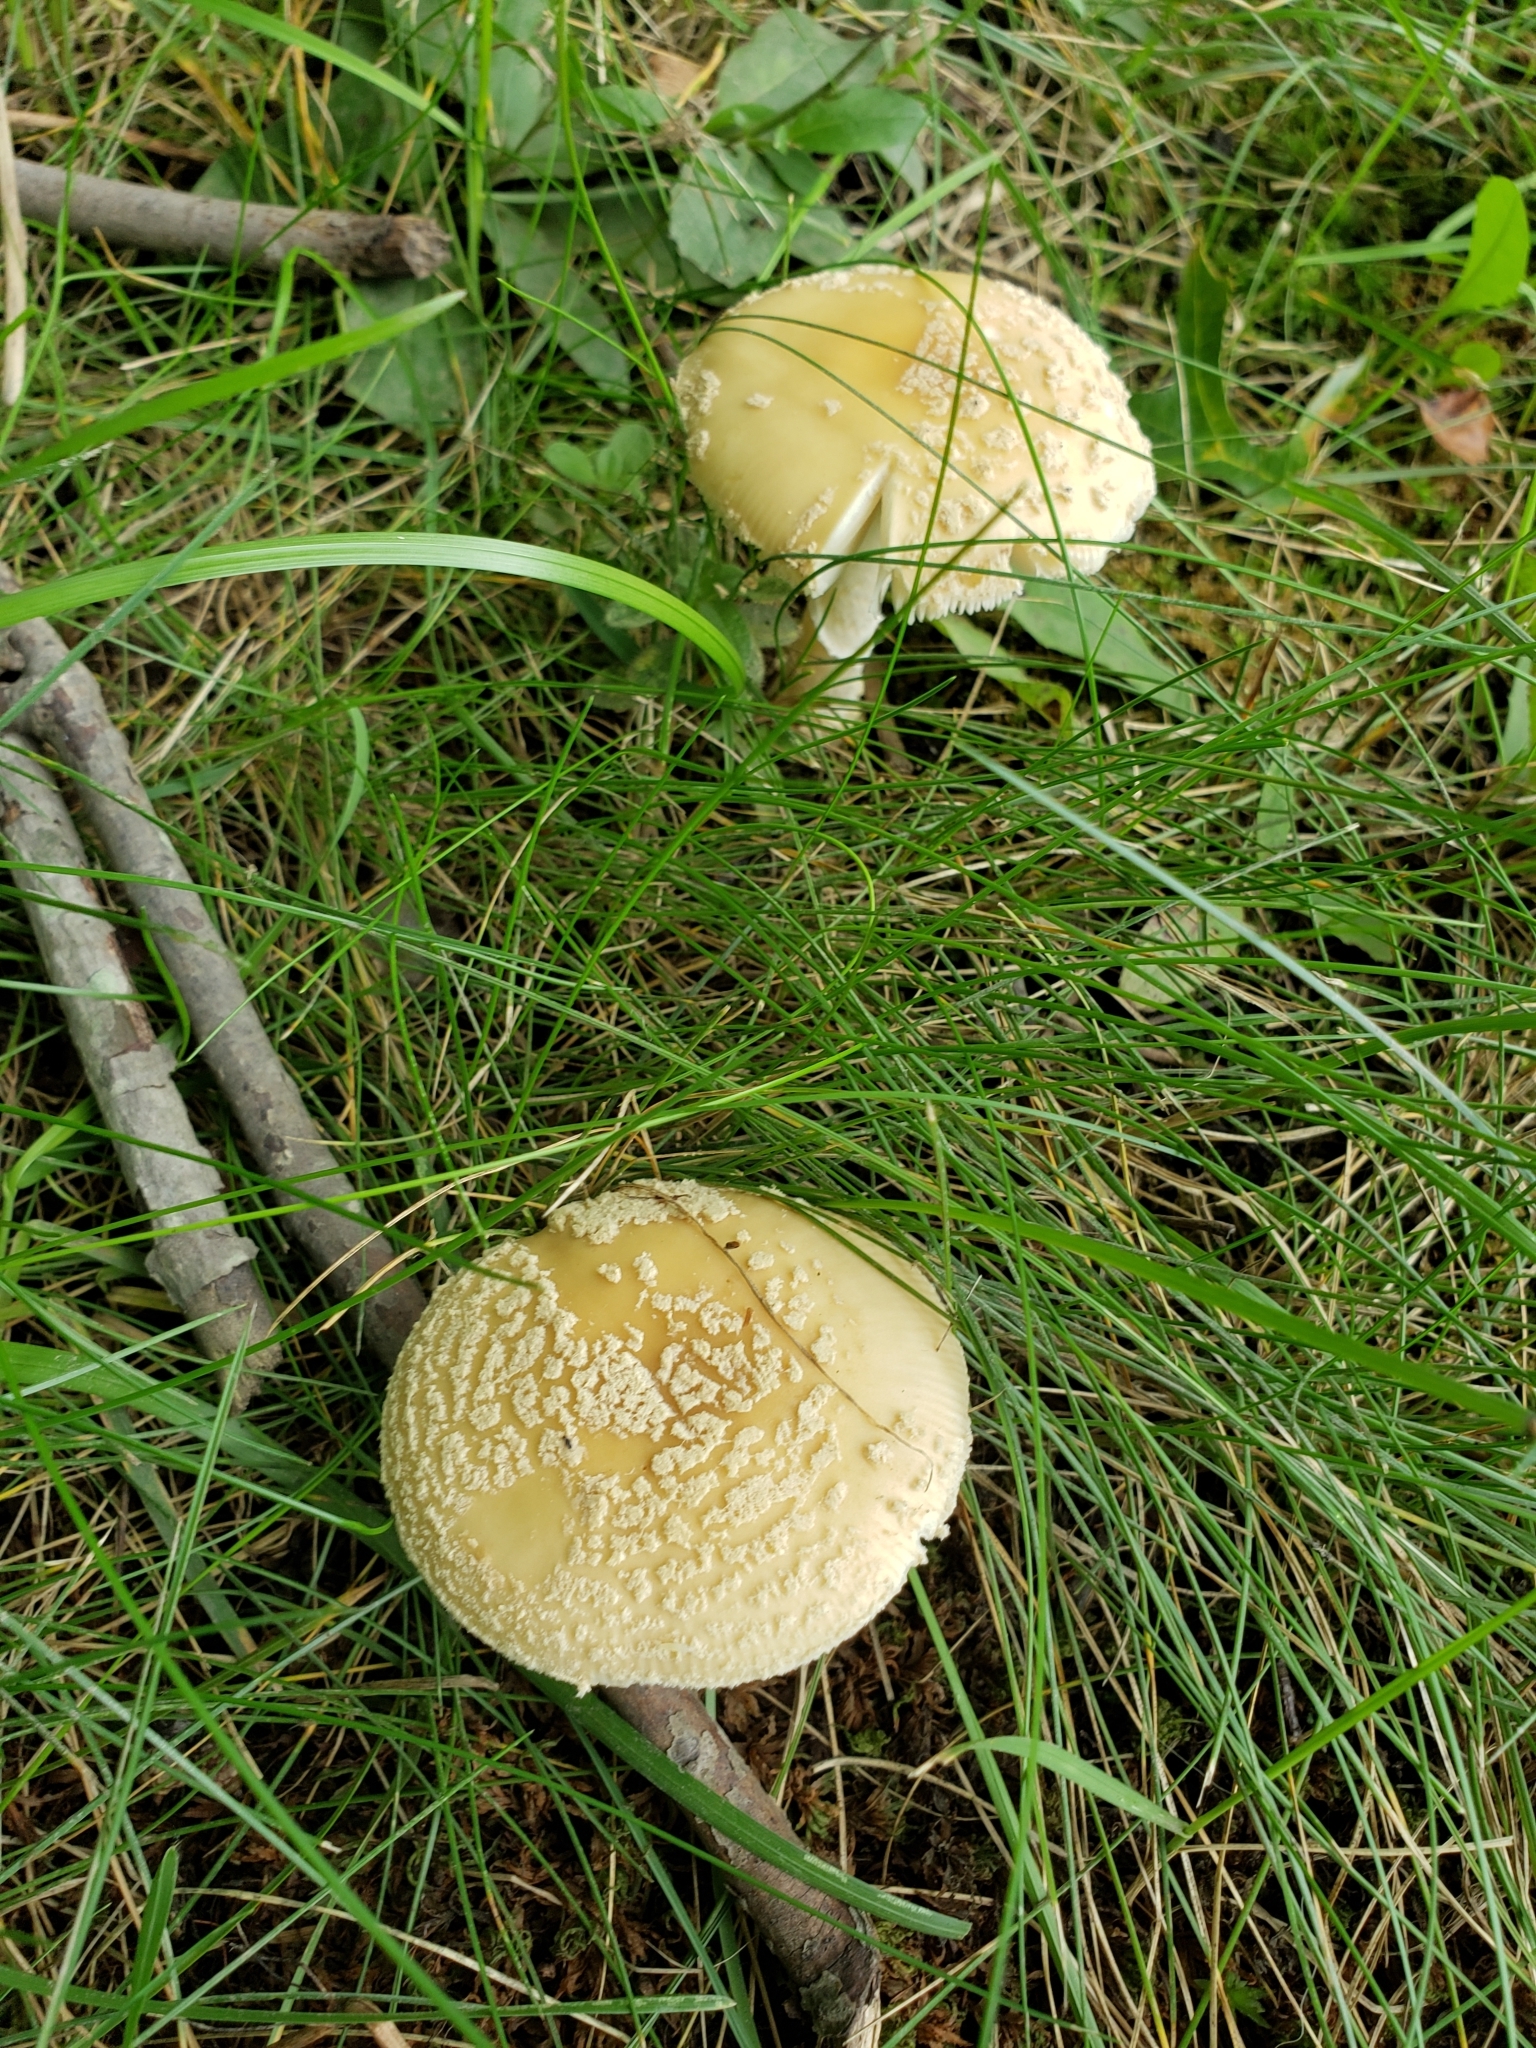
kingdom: Fungi
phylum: Basidiomycota
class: Agaricomycetes
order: Agaricales
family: Amanitaceae
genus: Amanita
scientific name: Amanita crenulata
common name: Poison champagne amanita
